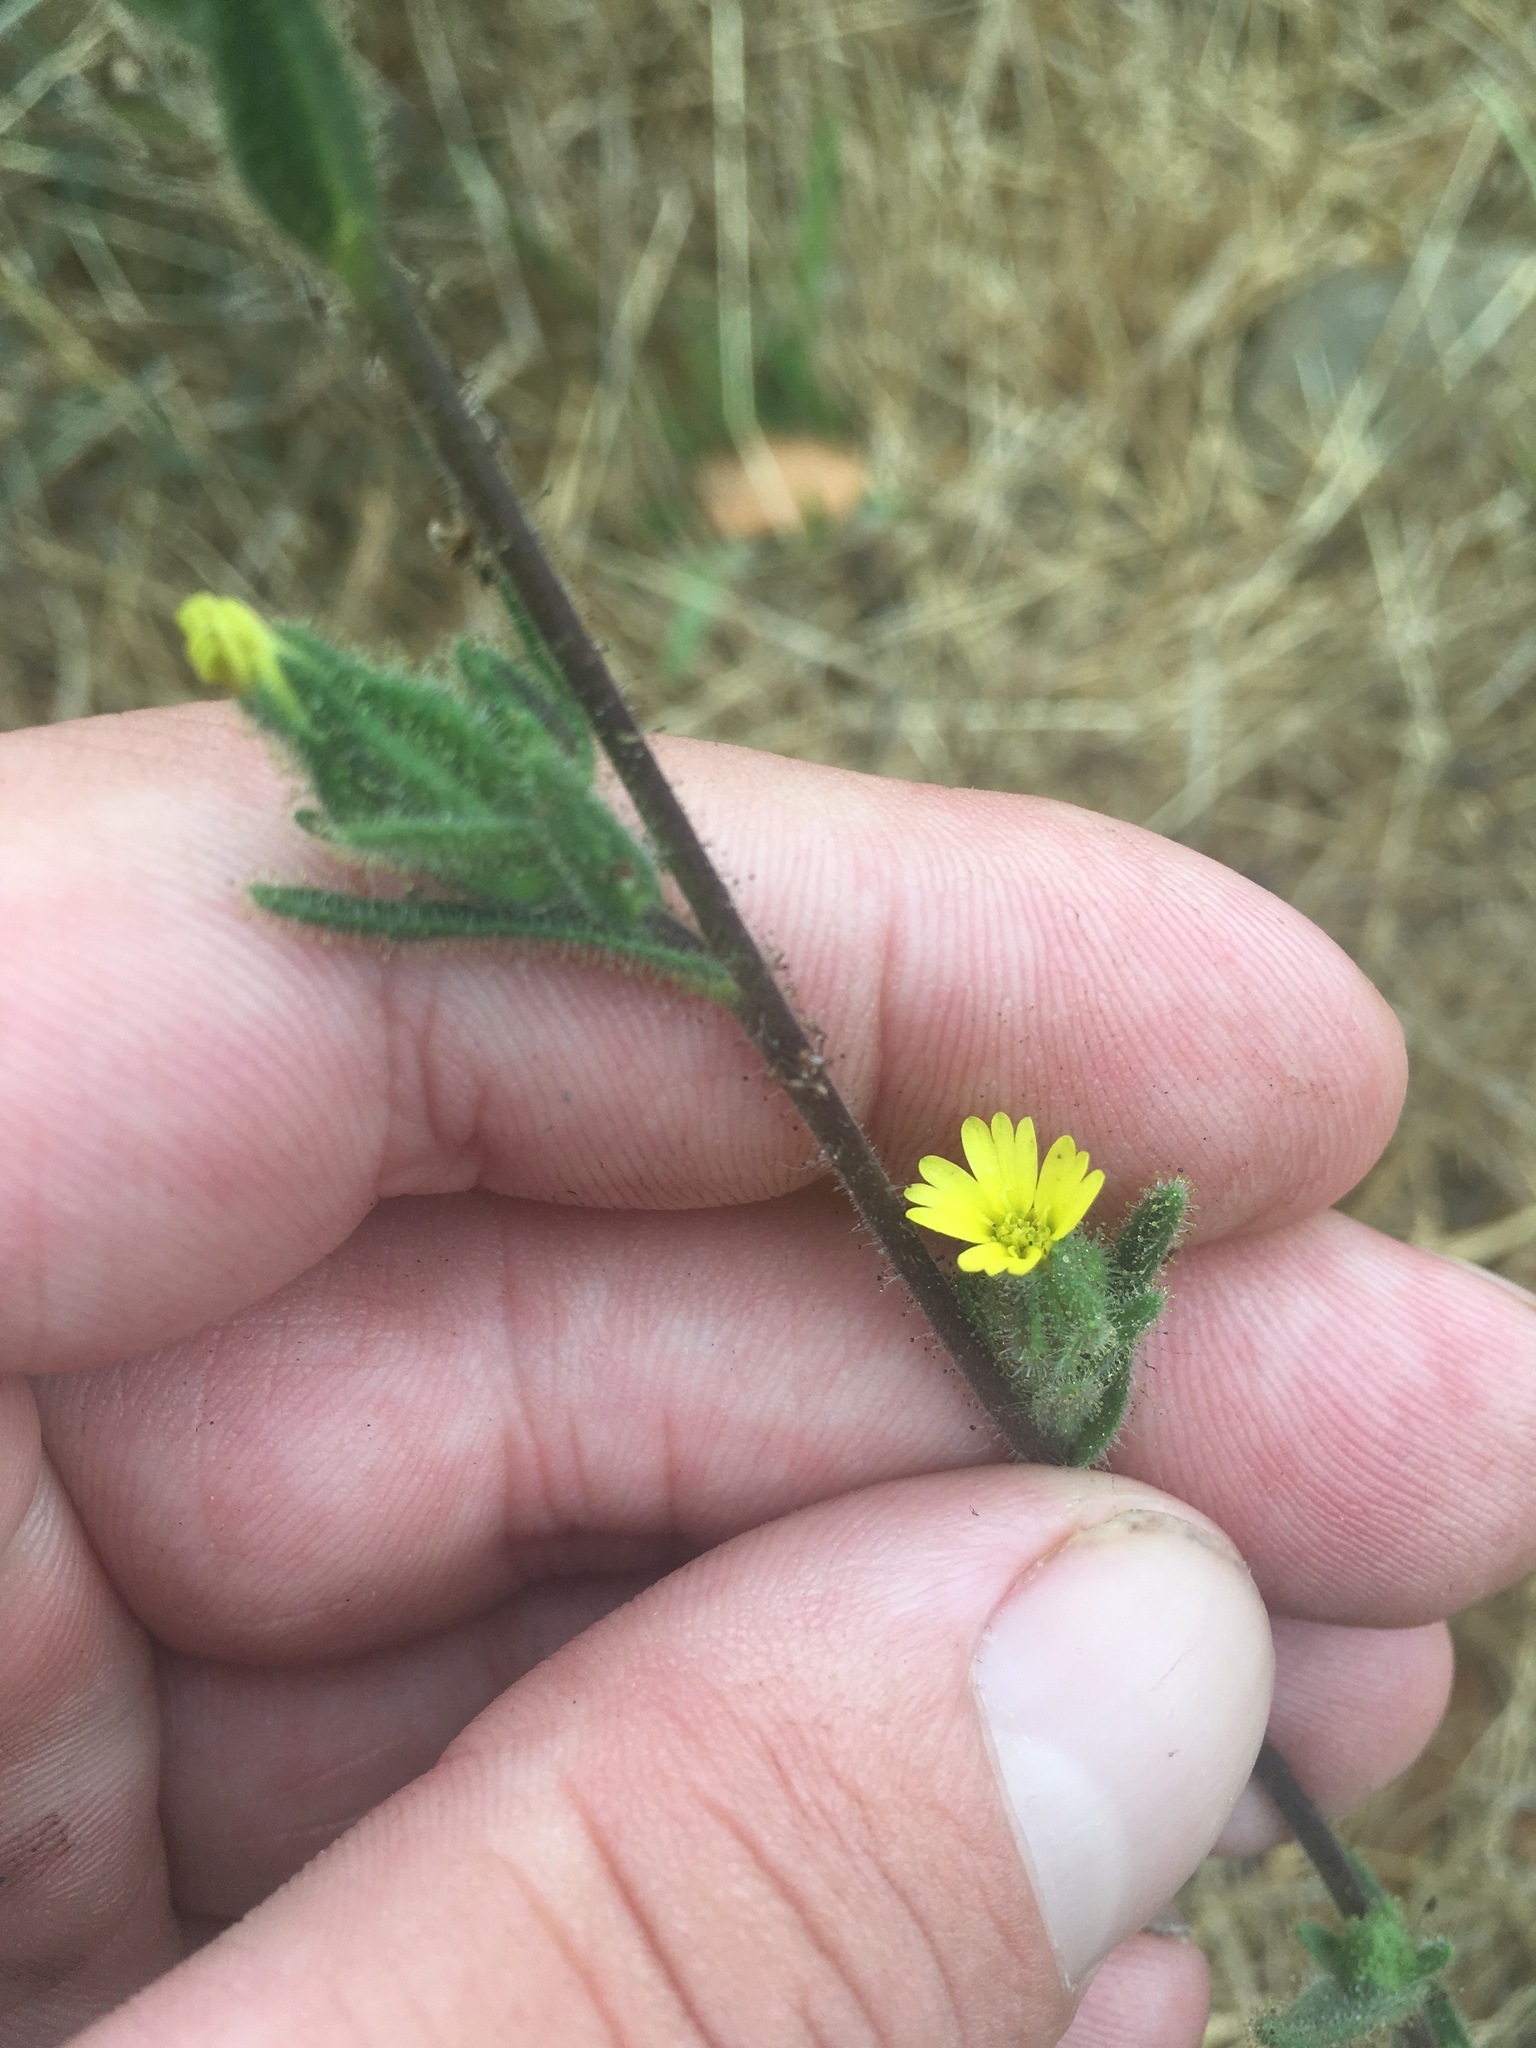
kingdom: Plantae
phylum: Tracheophyta
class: Magnoliopsida
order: Asterales
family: Asteraceae
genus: Madia
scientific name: Madia gracilis
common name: Grassy tarweed
